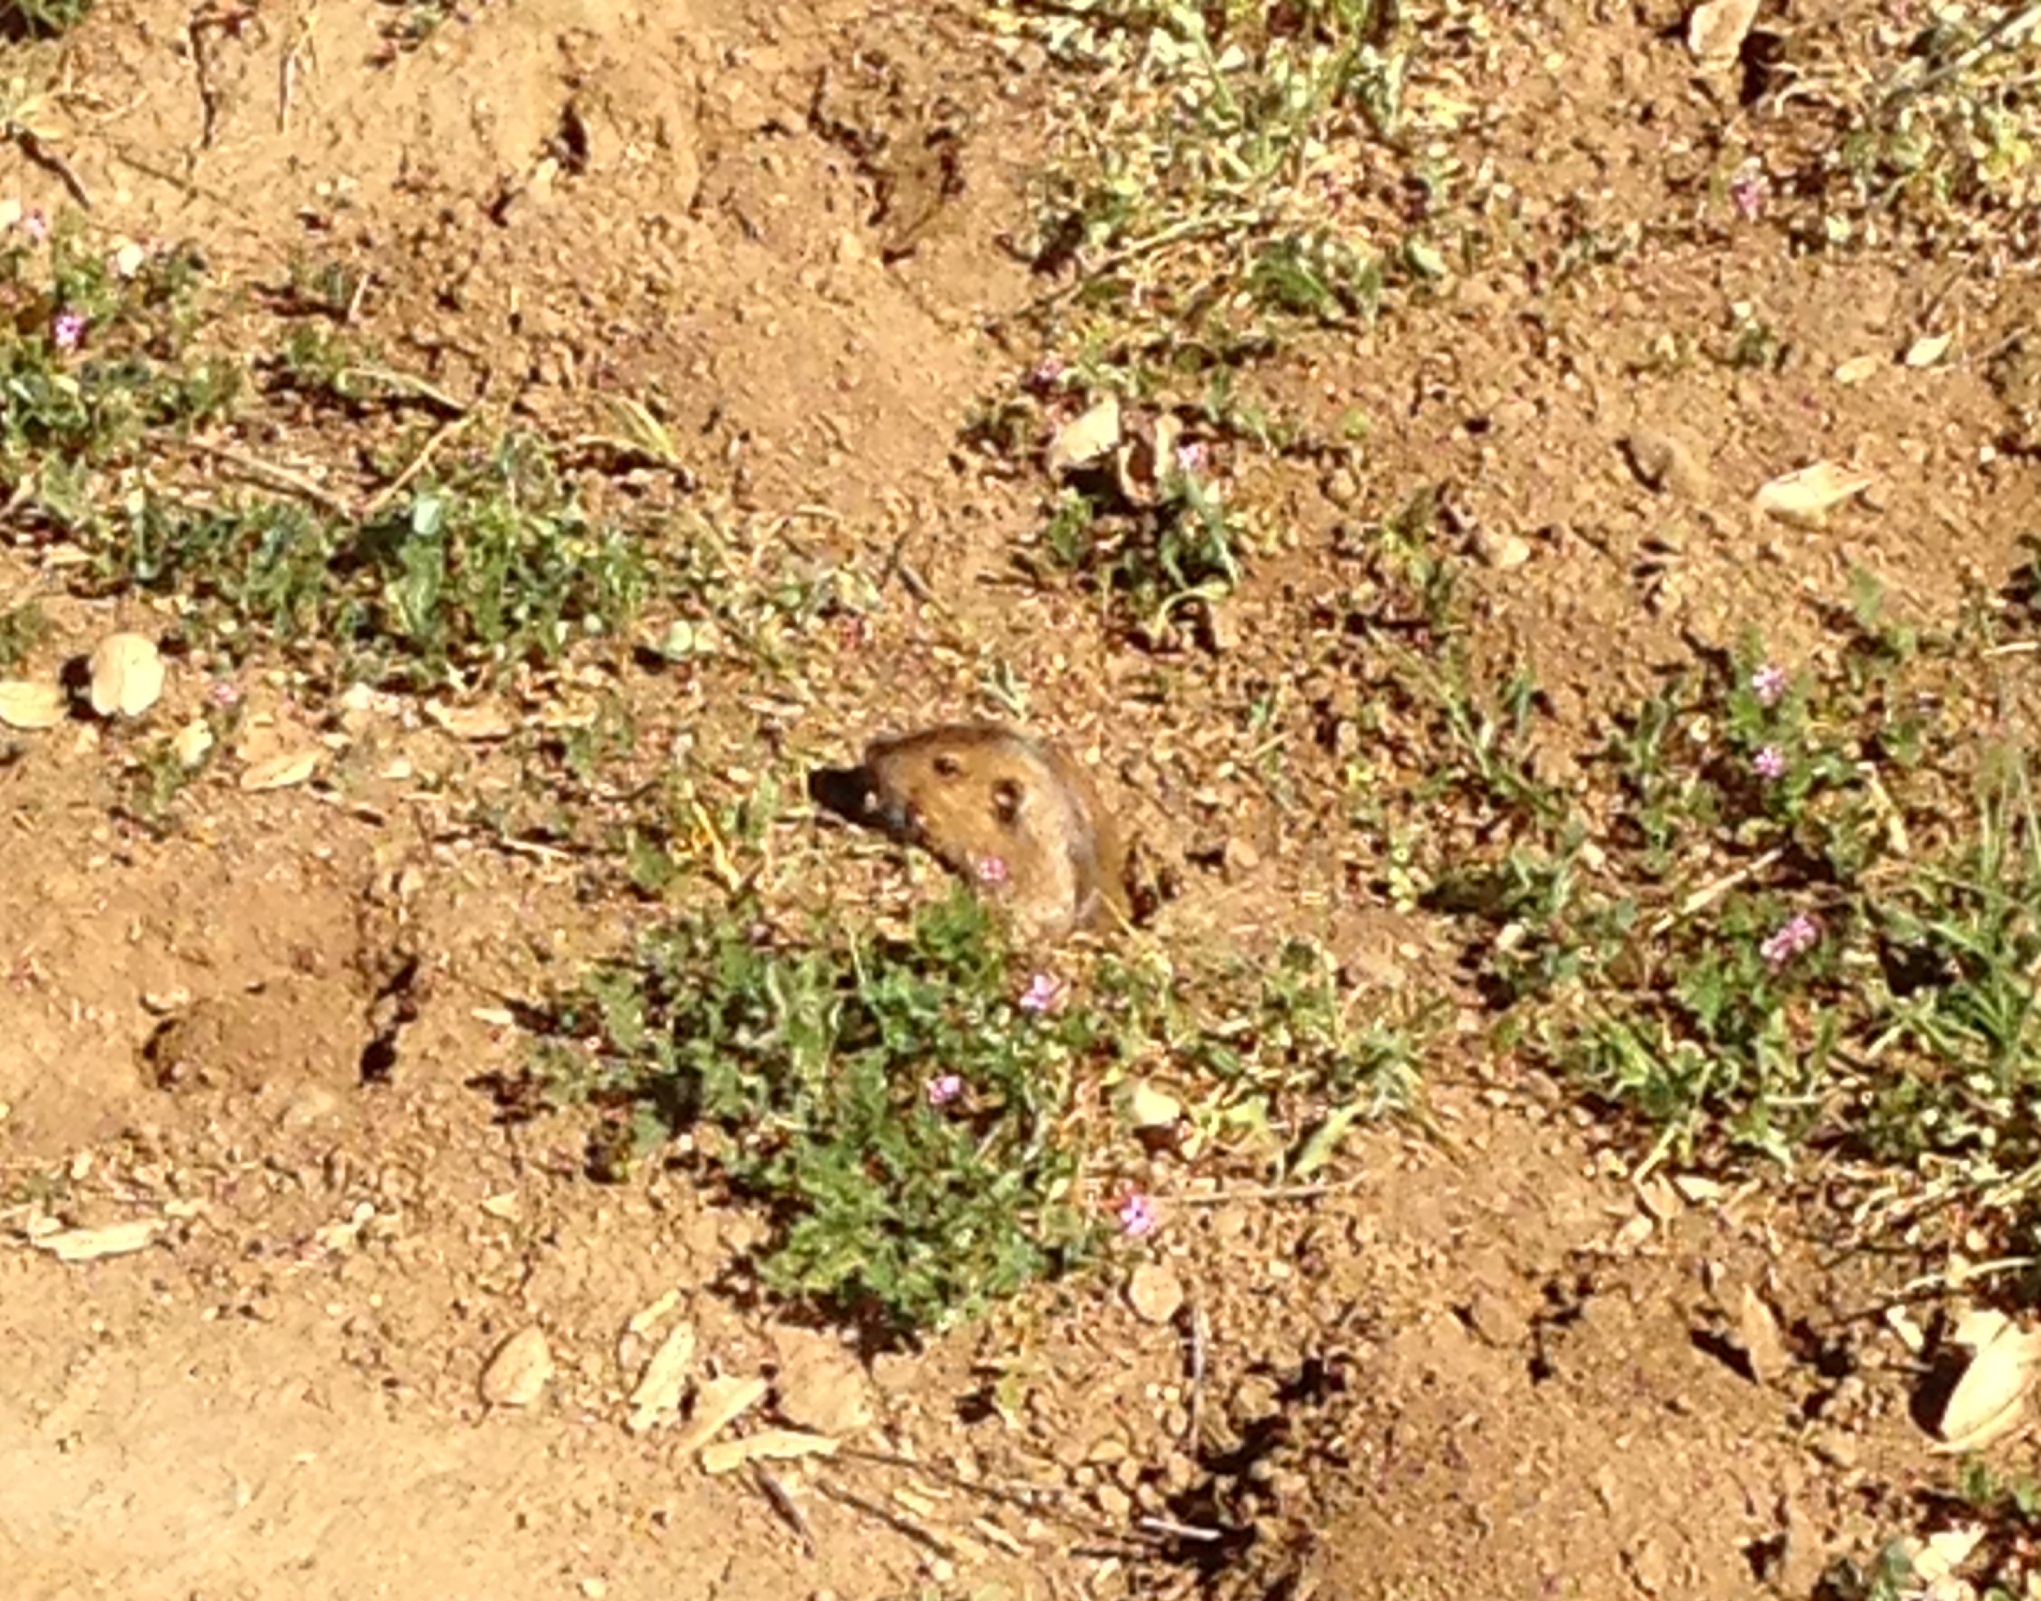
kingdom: Animalia
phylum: Chordata
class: Mammalia
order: Rodentia
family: Geomyidae
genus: Thomomys
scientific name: Thomomys bottae
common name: Botta's pocket gopher
